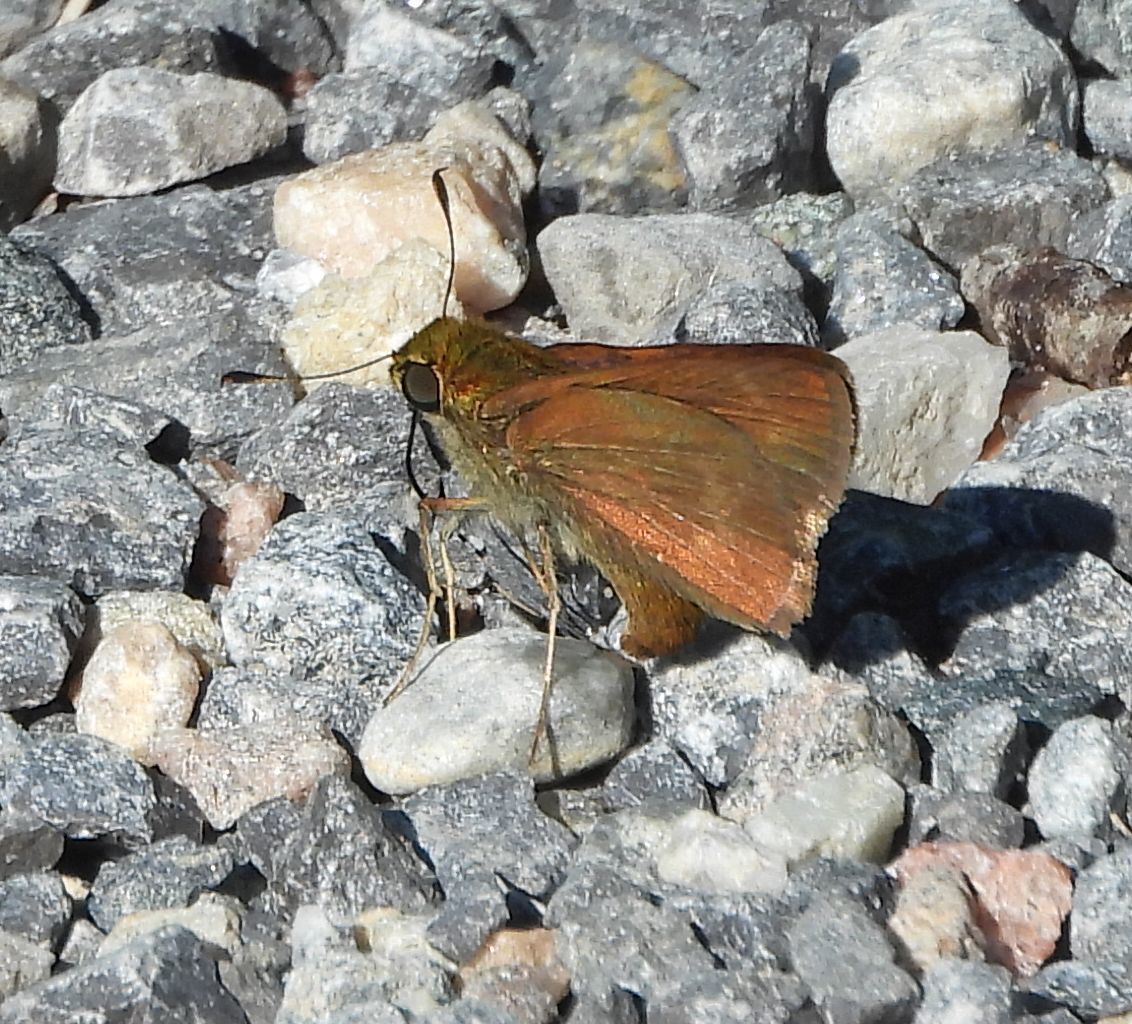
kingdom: Animalia
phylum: Arthropoda
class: Insecta
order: Lepidoptera
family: Hesperiidae
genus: Euphyes
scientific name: Euphyes vestris
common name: Dun skipper
